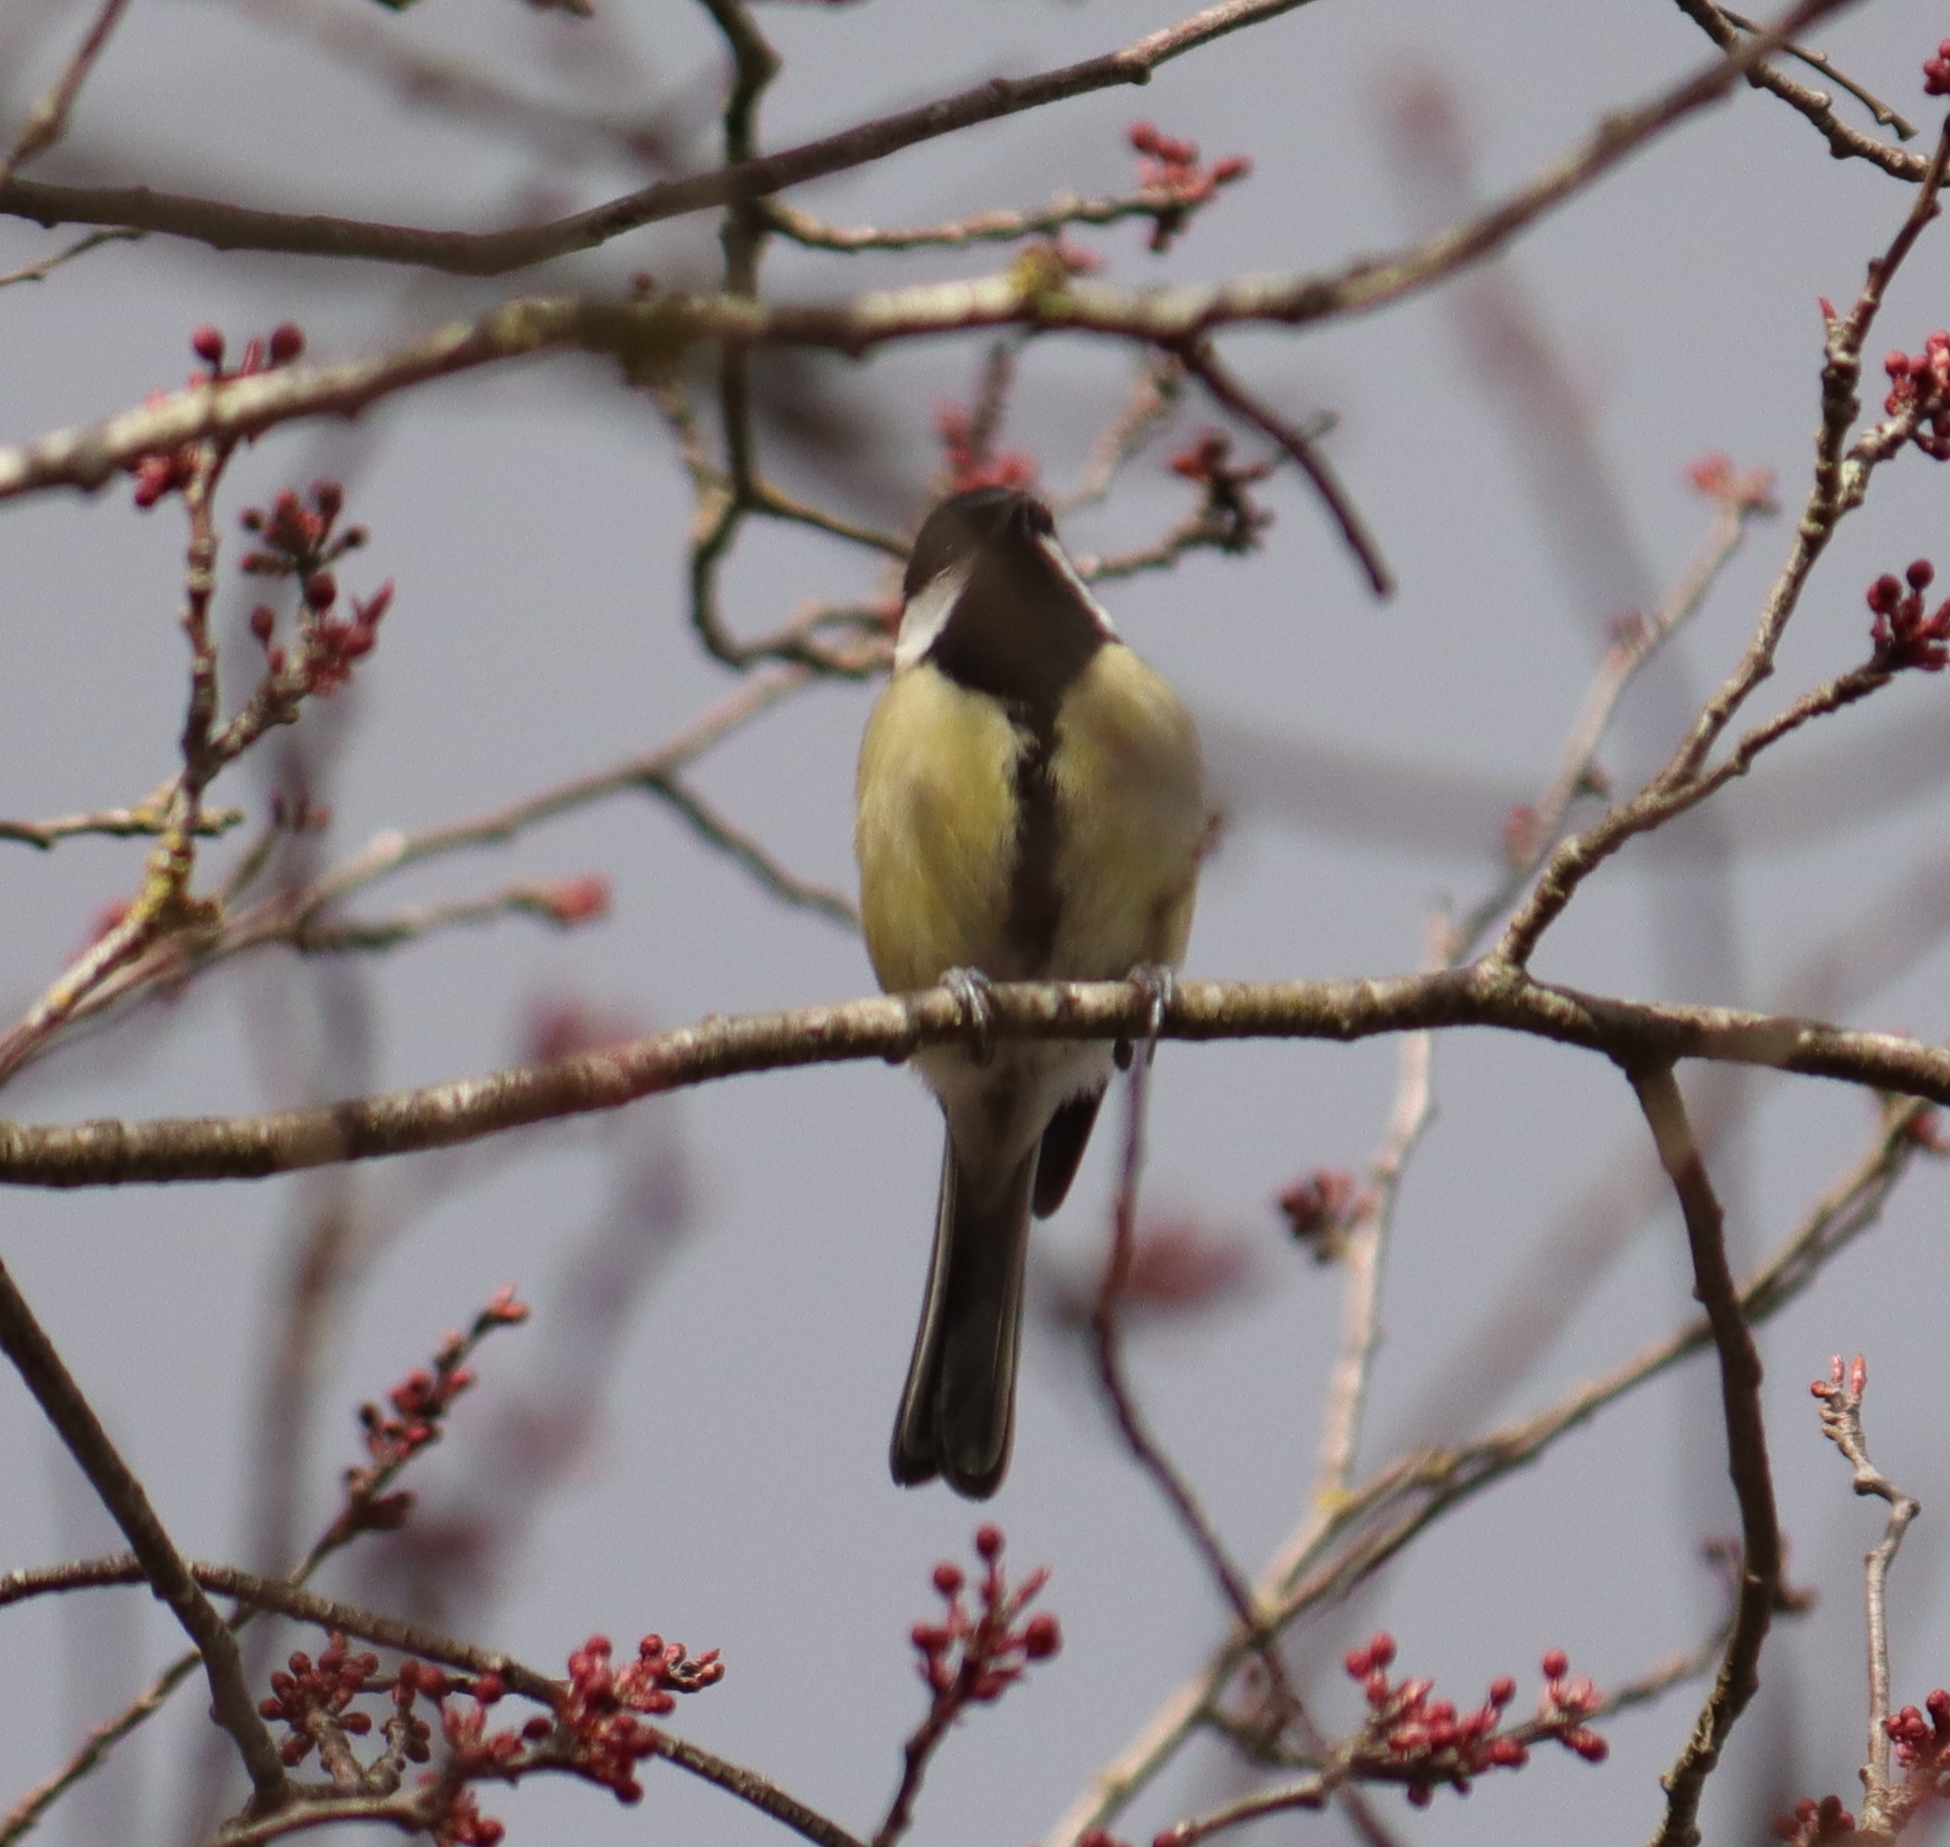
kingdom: Animalia
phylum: Chordata
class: Aves
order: Passeriformes
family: Paridae
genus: Parus
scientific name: Parus major
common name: Great tit
